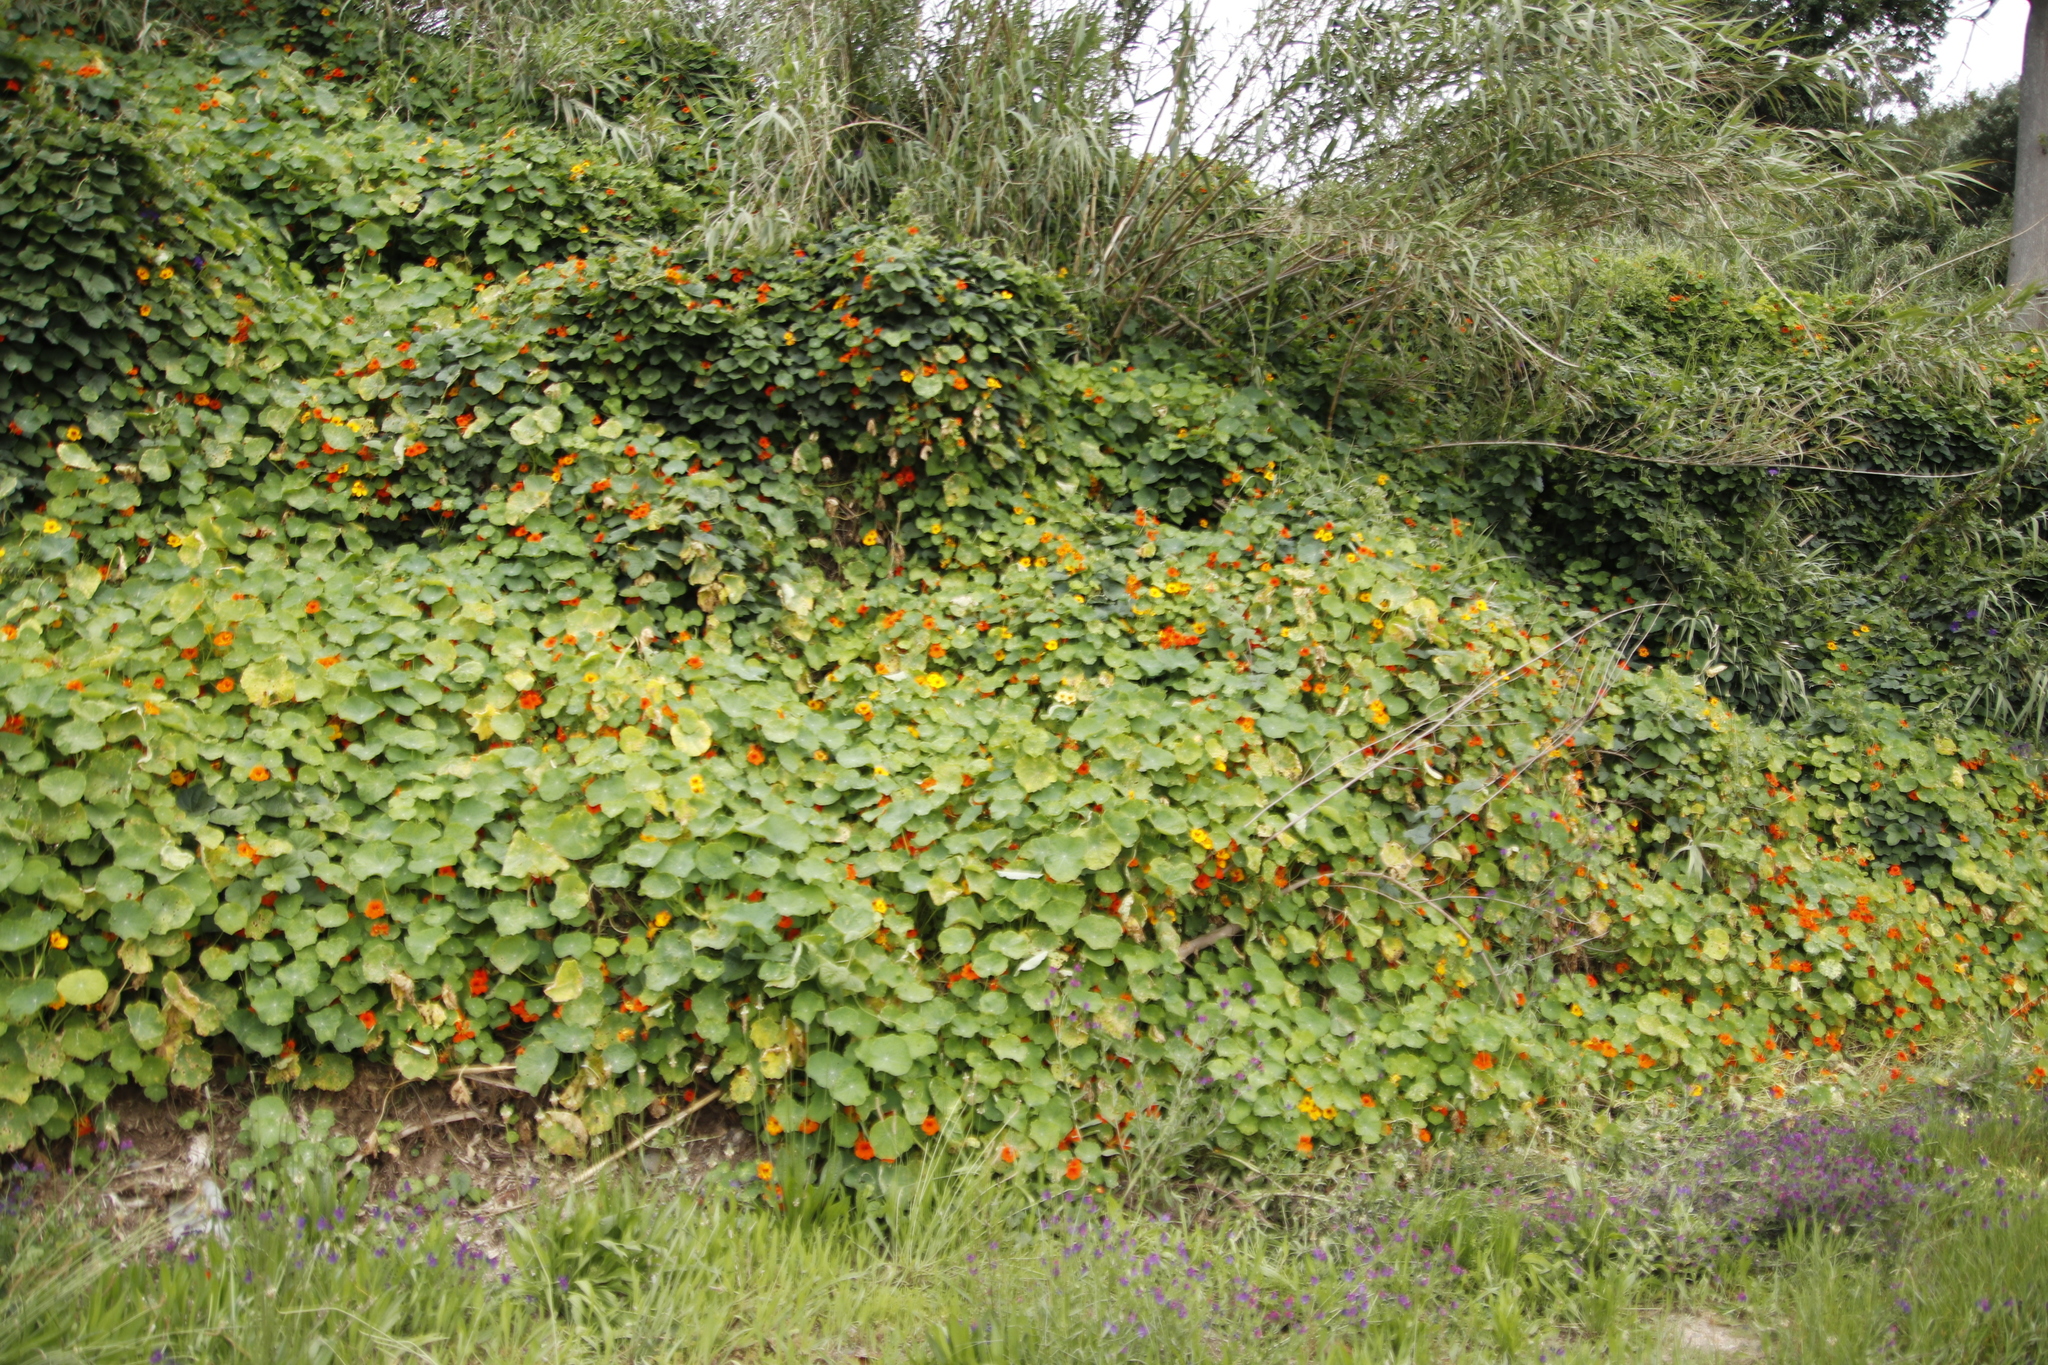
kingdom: Plantae
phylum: Tracheophyta
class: Magnoliopsida
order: Brassicales
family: Tropaeolaceae
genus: Tropaeolum
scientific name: Tropaeolum majus
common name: Nasturtium
